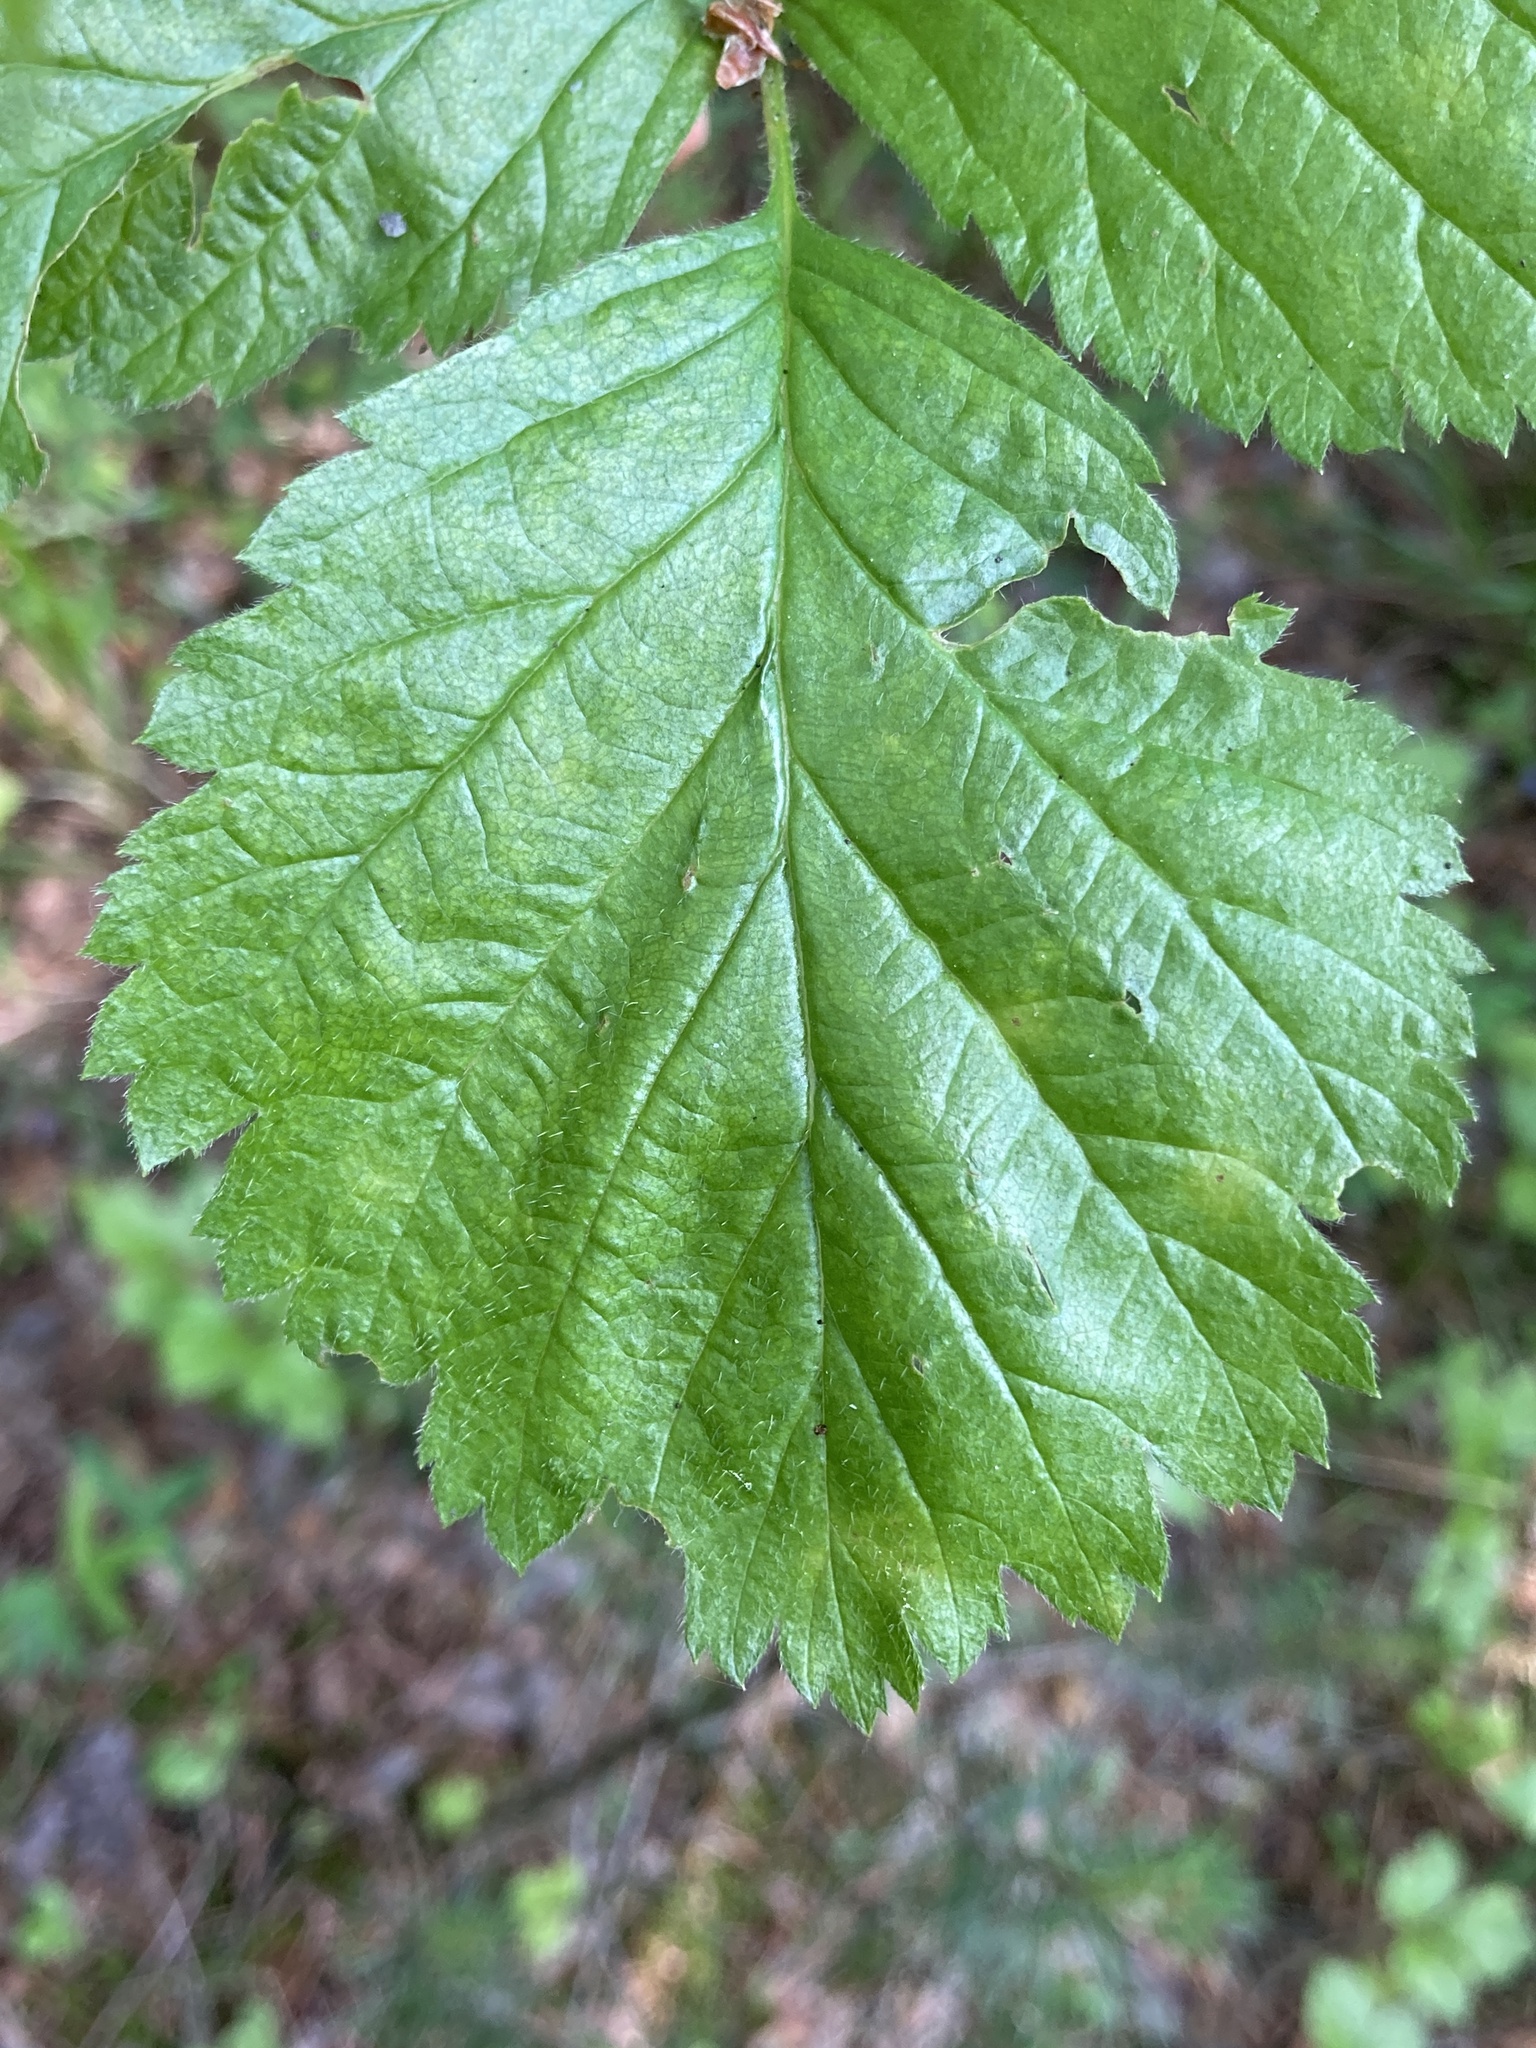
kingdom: Plantae
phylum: Tracheophyta
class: Magnoliopsida
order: Rosales
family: Rosaceae
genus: Rubus
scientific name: Rubus saxatilis
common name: Stone bramble
